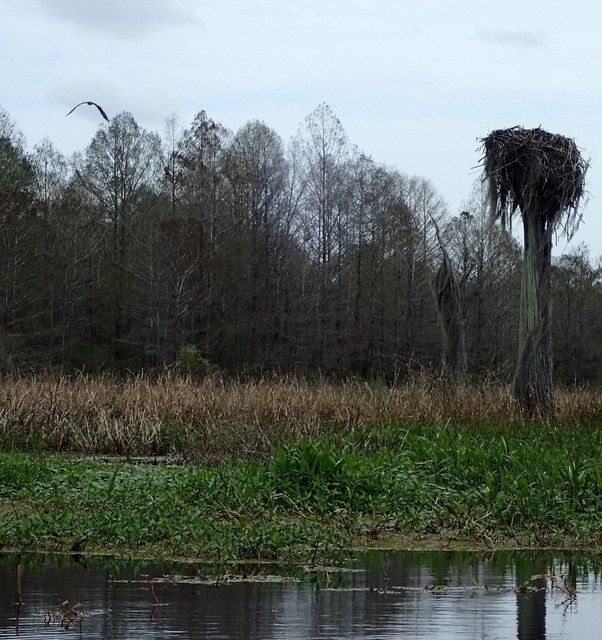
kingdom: Animalia
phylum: Chordata
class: Aves
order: Accipitriformes
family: Pandionidae
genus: Pandion
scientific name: Pandion haliaetus
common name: Osprey
